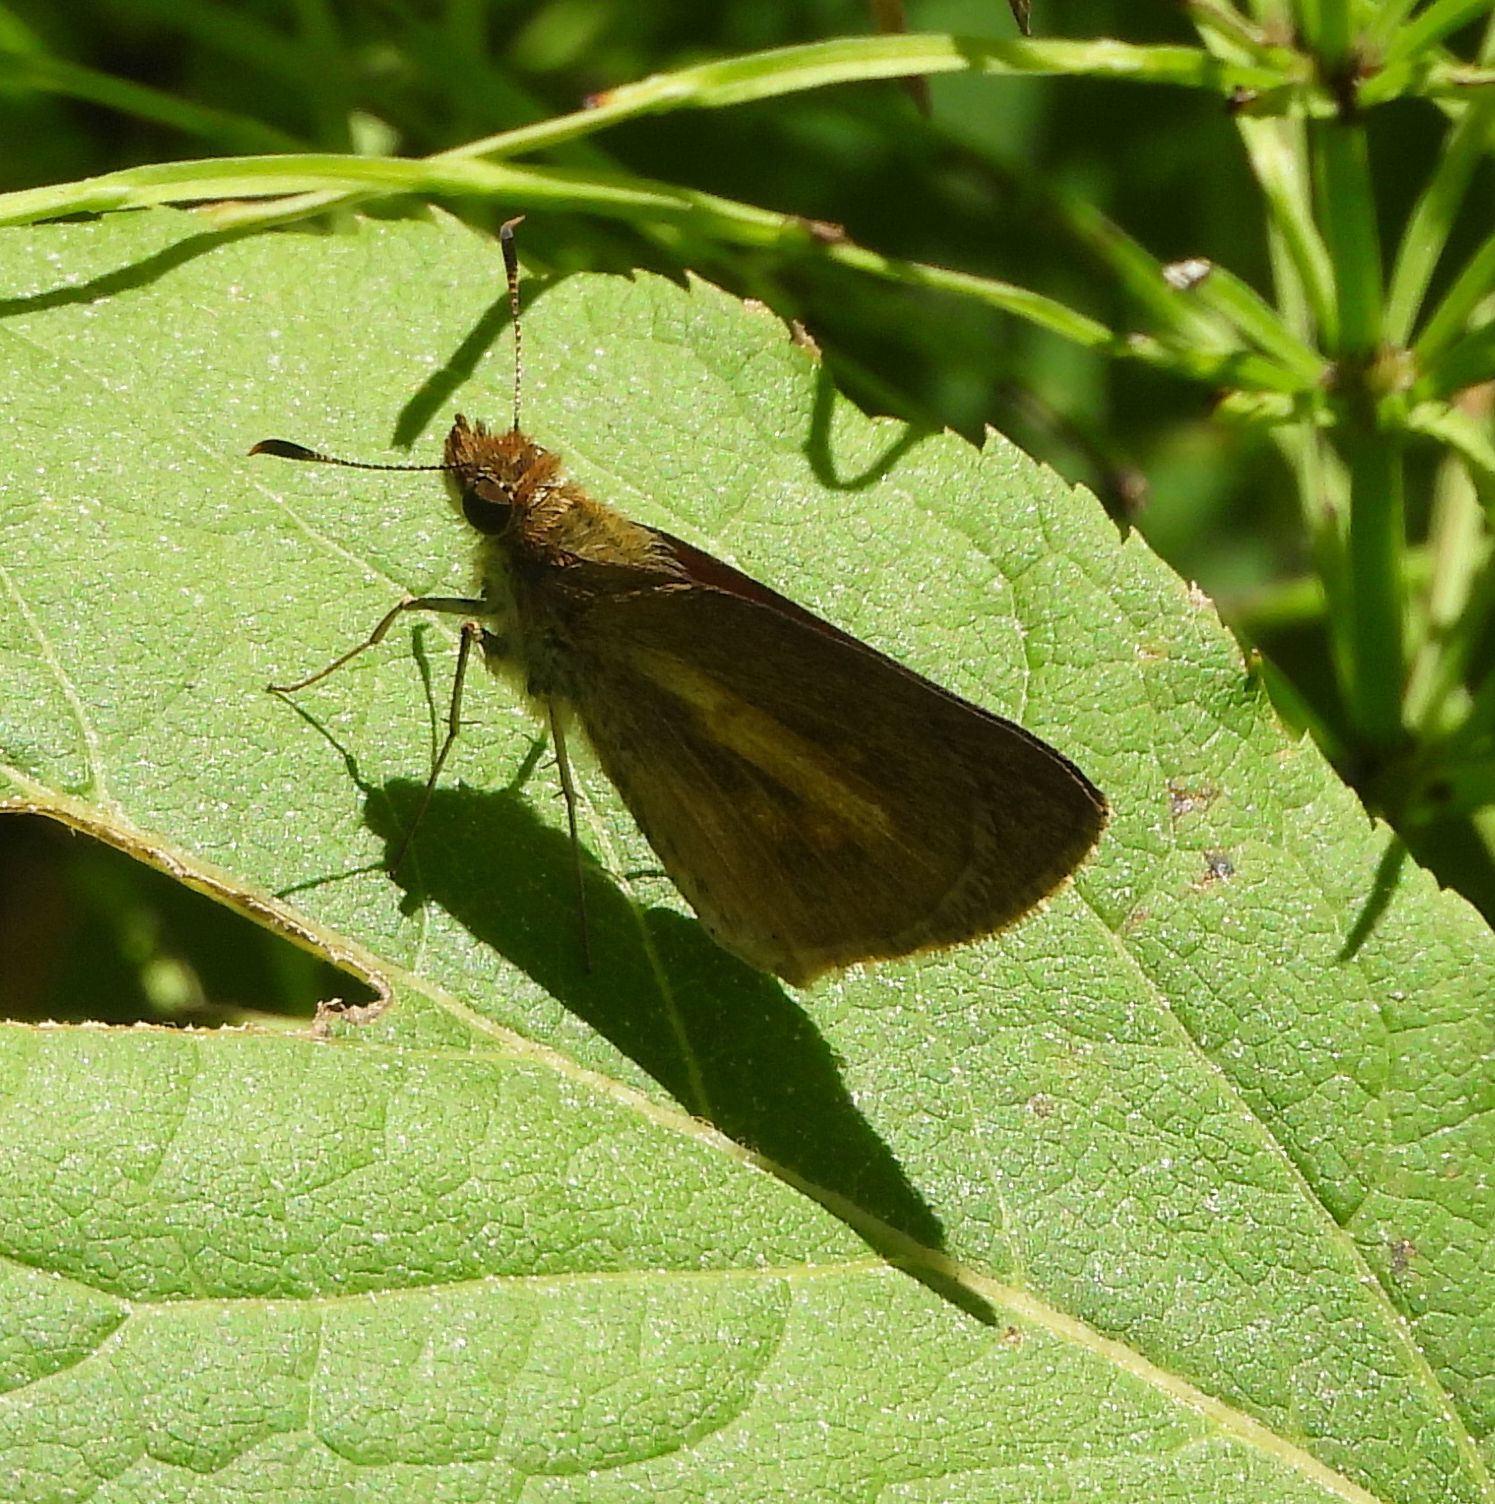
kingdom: Animalia
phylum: Arthropoda
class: Insecta
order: Lepidoptera
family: Hesperiidae
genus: Poanes
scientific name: Poanes viator
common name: Broad-winged skipper
